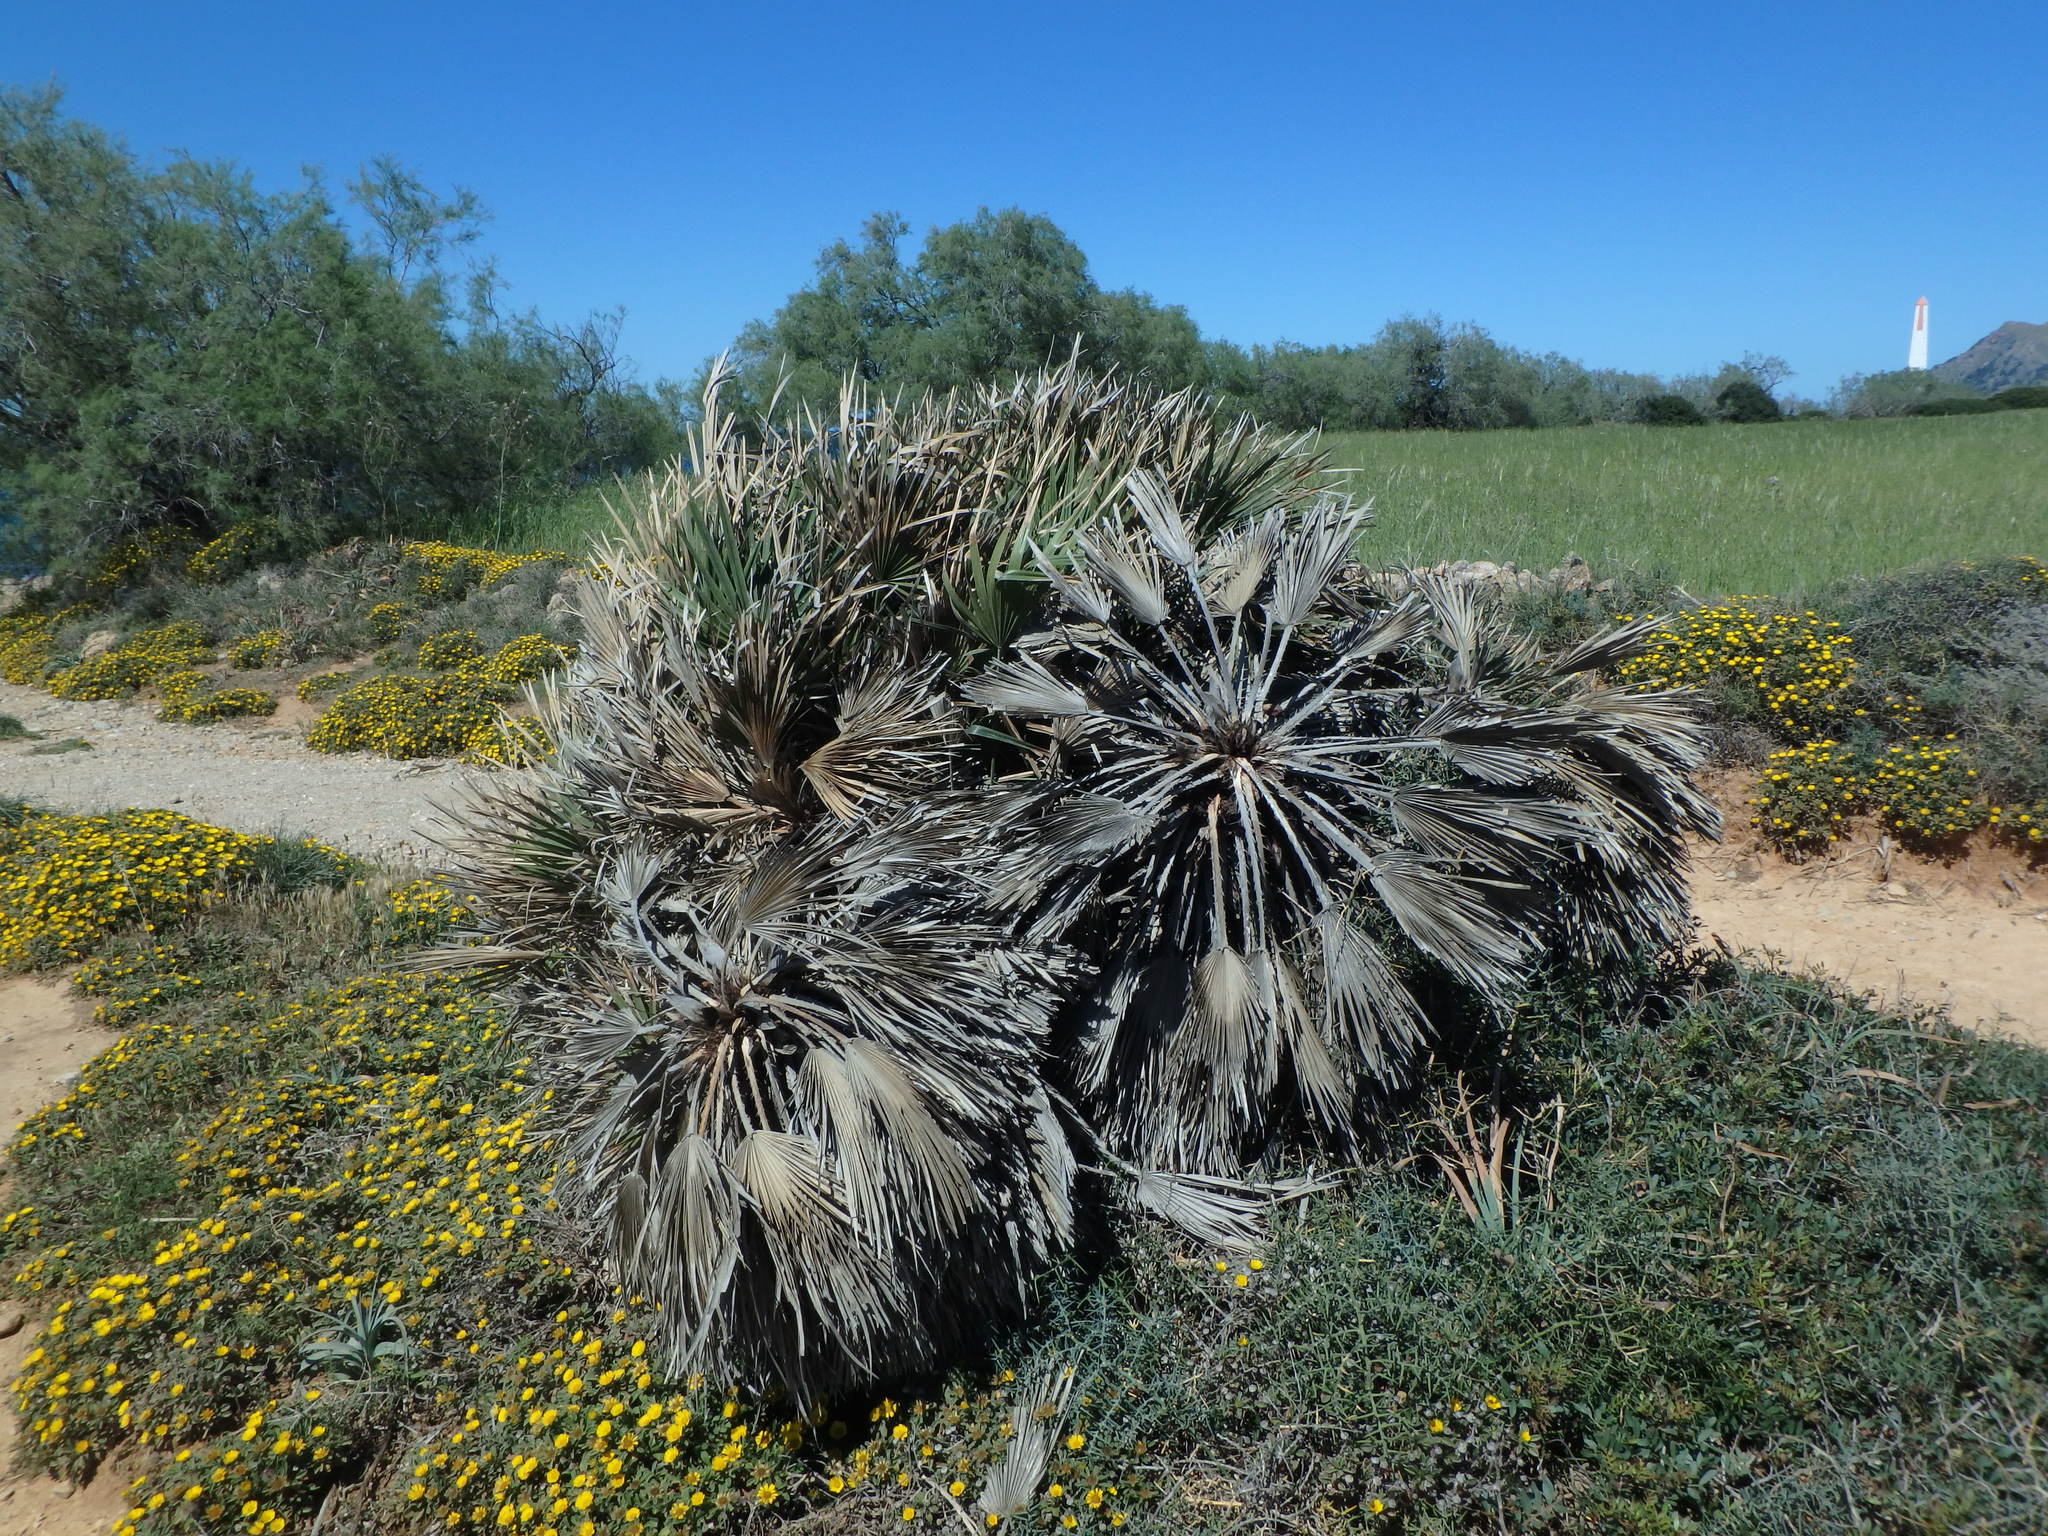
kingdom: Plantae
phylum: Tracheophyta
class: Liliopsida
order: Arecales
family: Arecaceae
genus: Chamaerops
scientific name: Chamaerops humilis
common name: Dwarf fan palm
